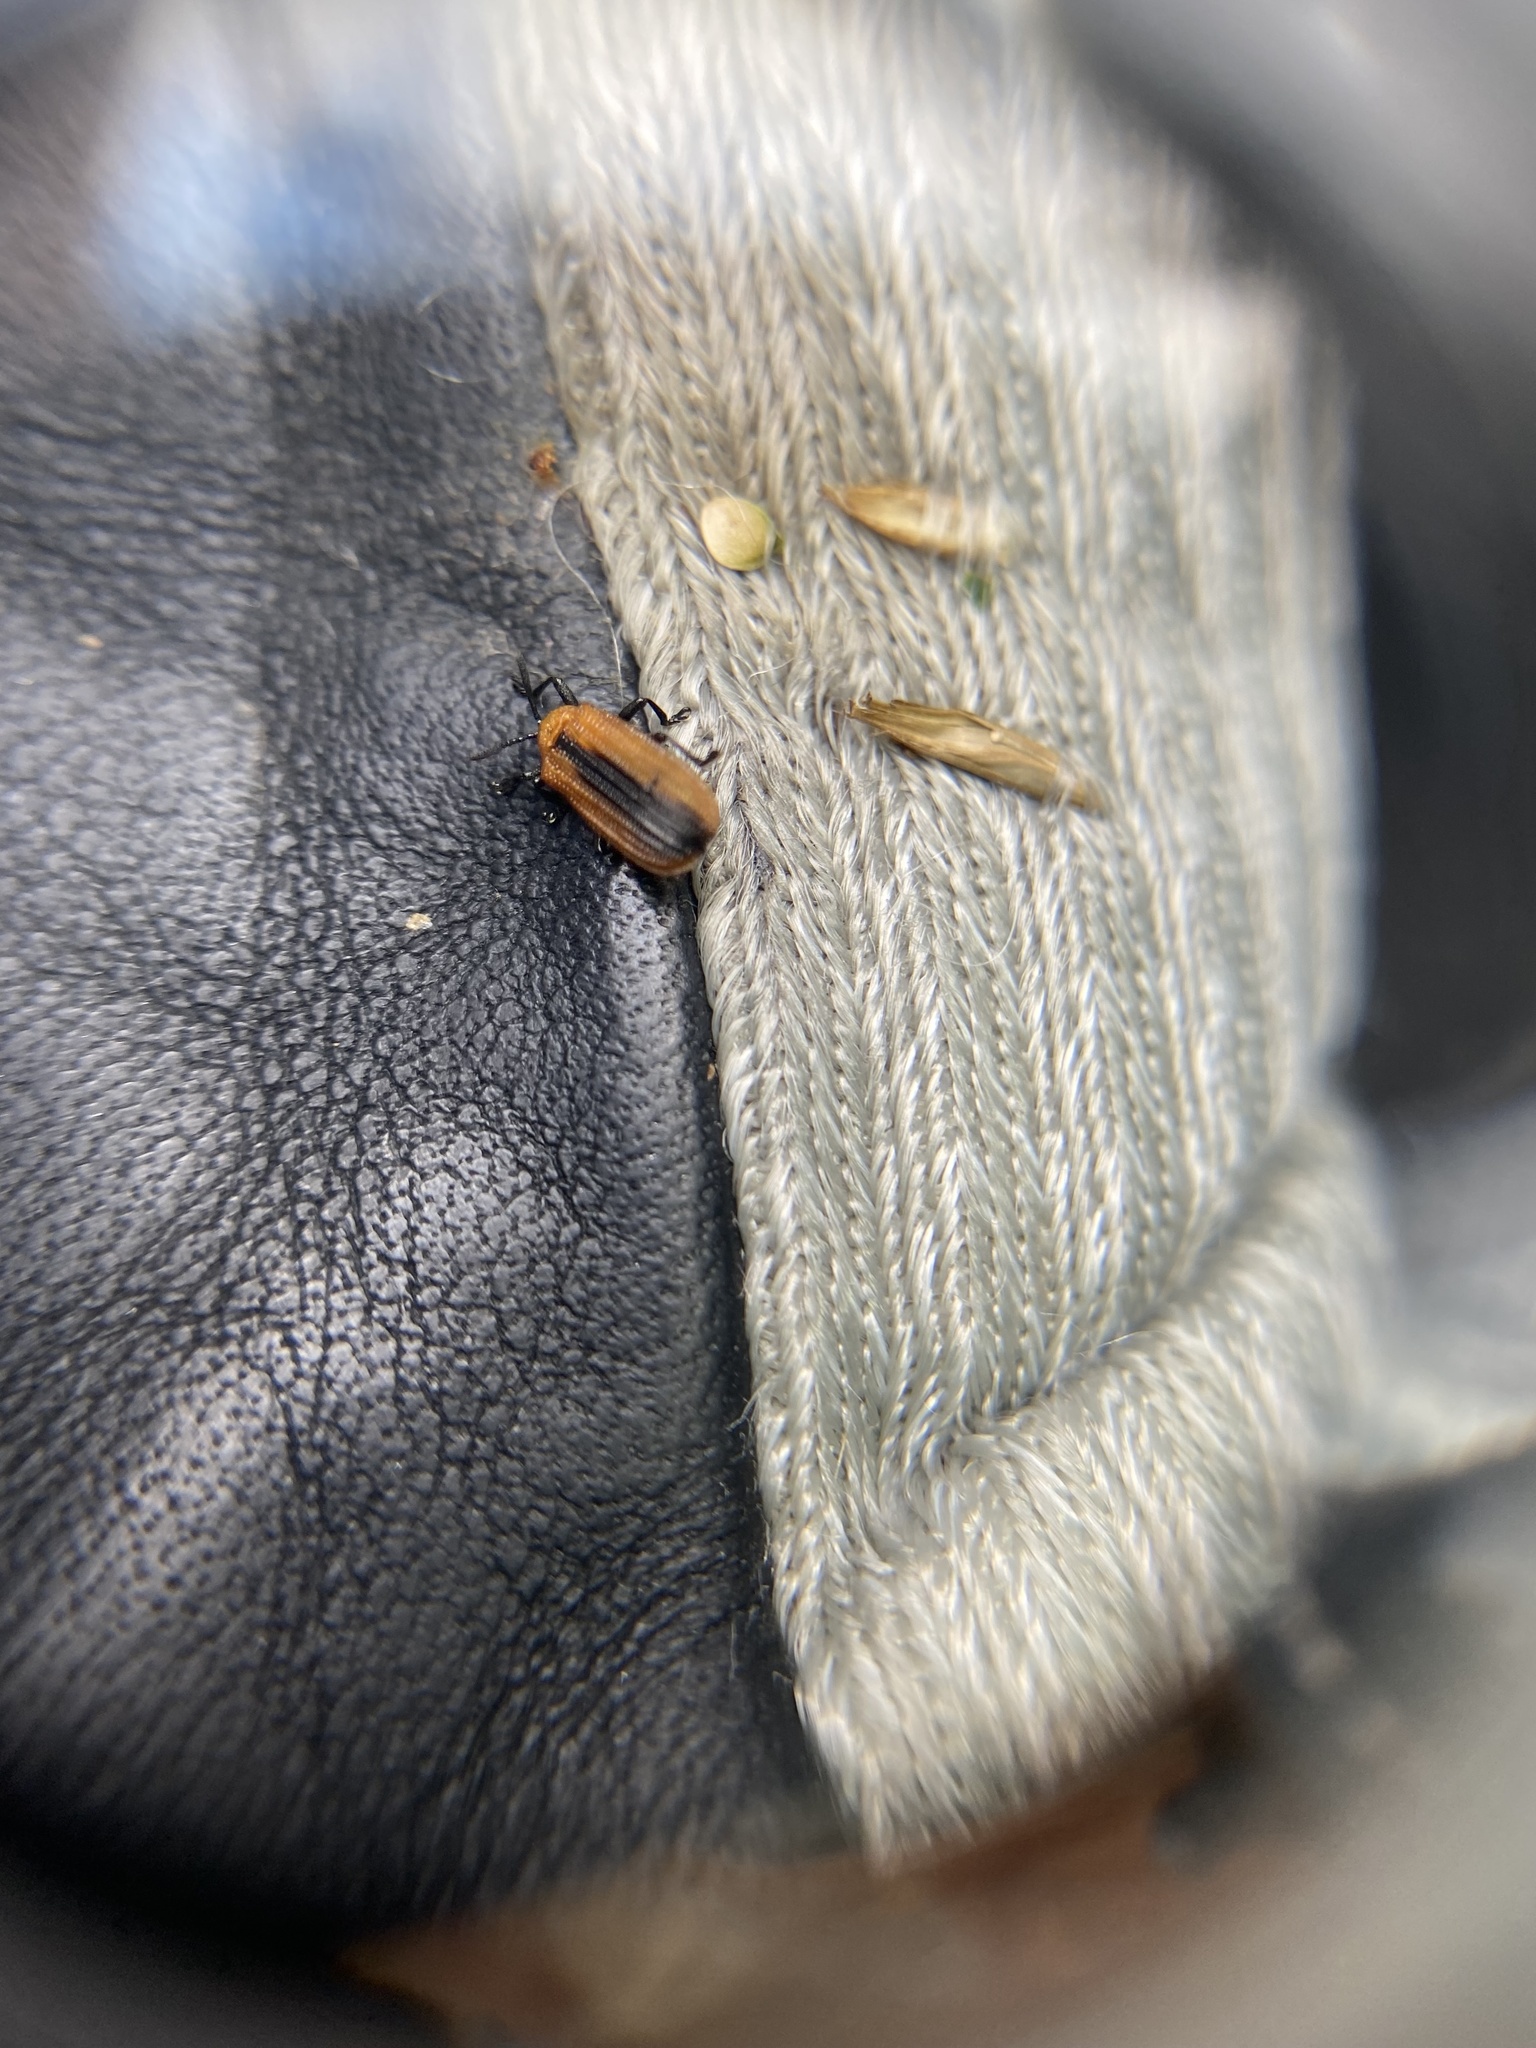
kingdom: Animalia
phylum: Arthropoda
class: Insecta
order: Coleoptera
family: Chrysomelidae
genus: Odontota
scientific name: Odontota dorsalis
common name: Locust leaf-miner beetle
